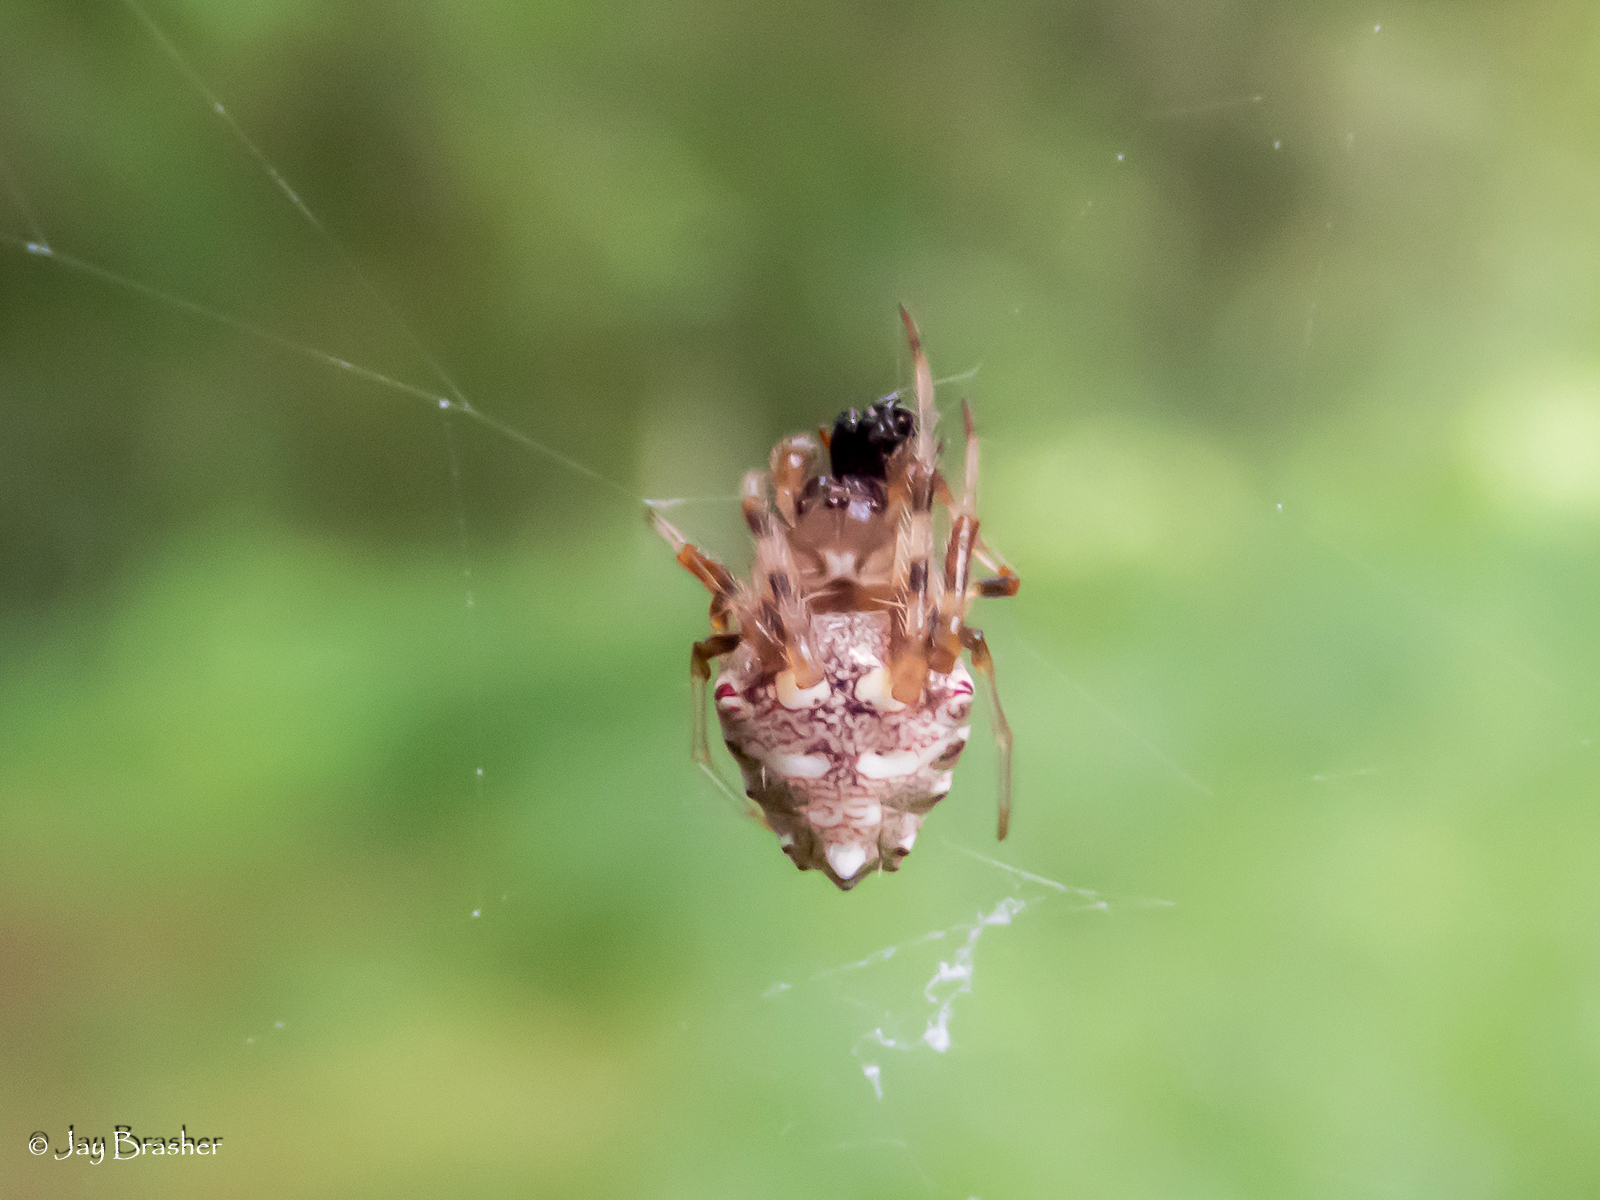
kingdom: Animalia
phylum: Arthropoda
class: Arachnida
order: Araneae
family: Araneidae
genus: Verrucosa
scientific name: Verrucosa arenata
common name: Orb weavers
